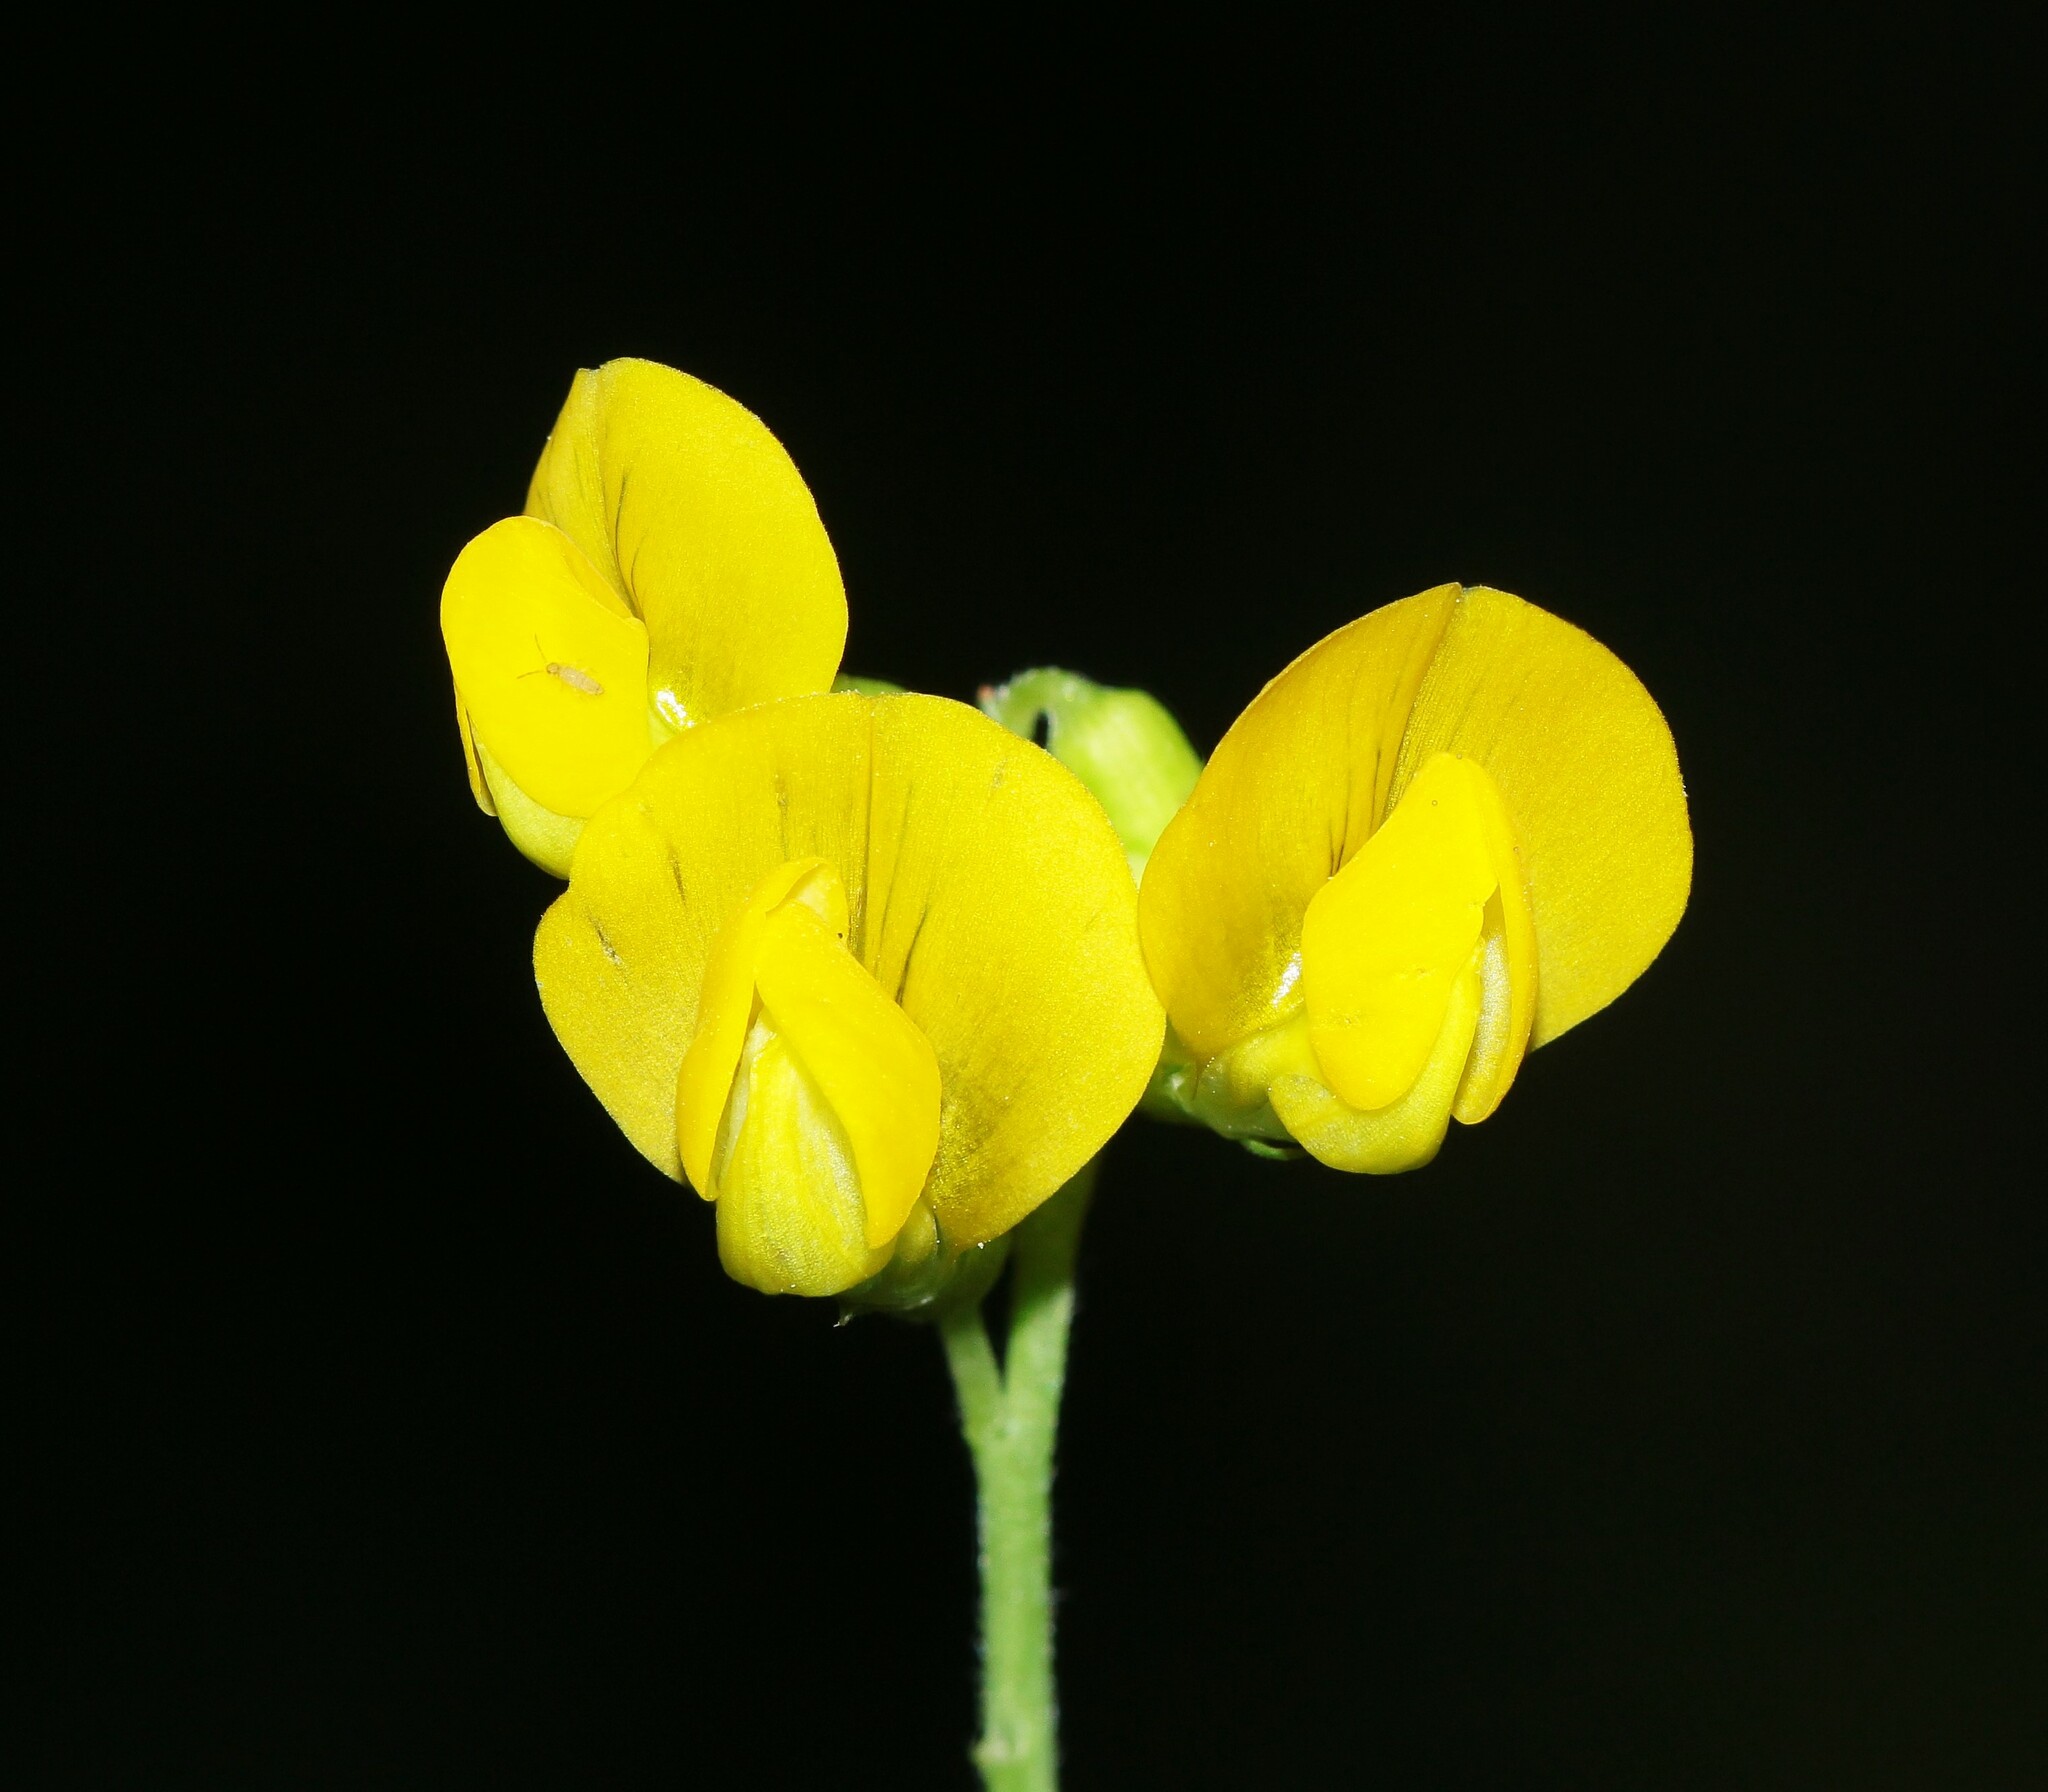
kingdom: Plantae
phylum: Tracheophyta
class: Magnoliopsida
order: Fabales
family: Fabaceae
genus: Lathyrus
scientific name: Lathyrus pratensis
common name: Meadow vetchling
